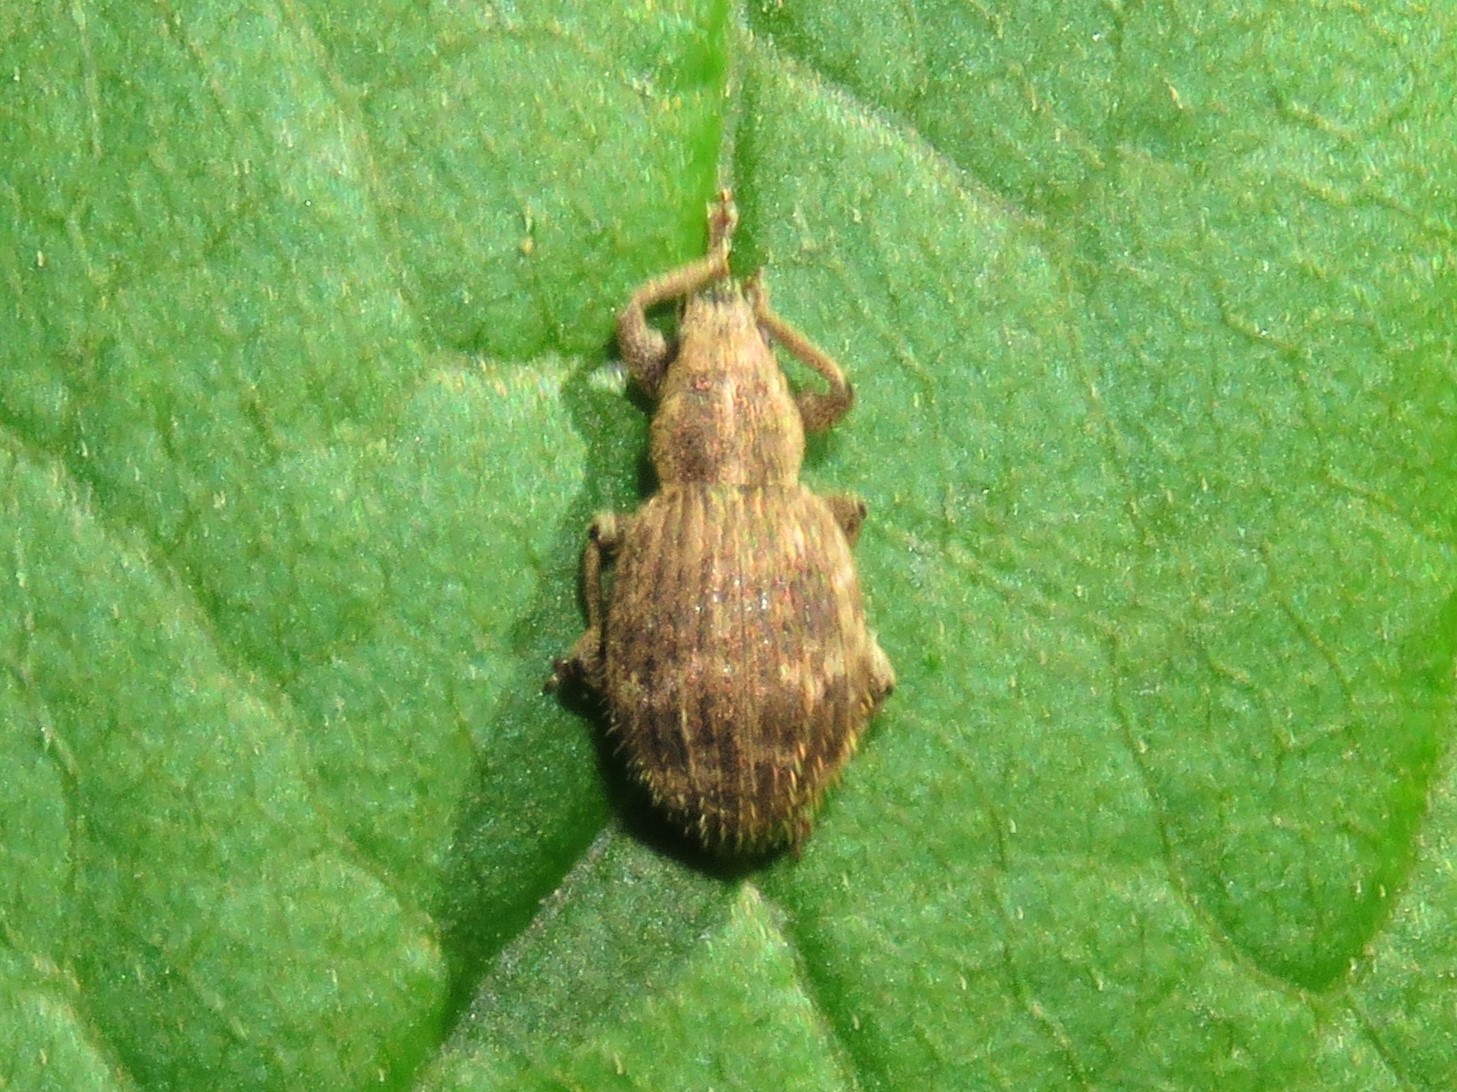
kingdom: Animalia
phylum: Arthropoda
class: Insecta
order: Coleoptera
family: Curculionidae
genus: Sciaphilus
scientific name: Sciaphilus asperatus
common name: Weevil
